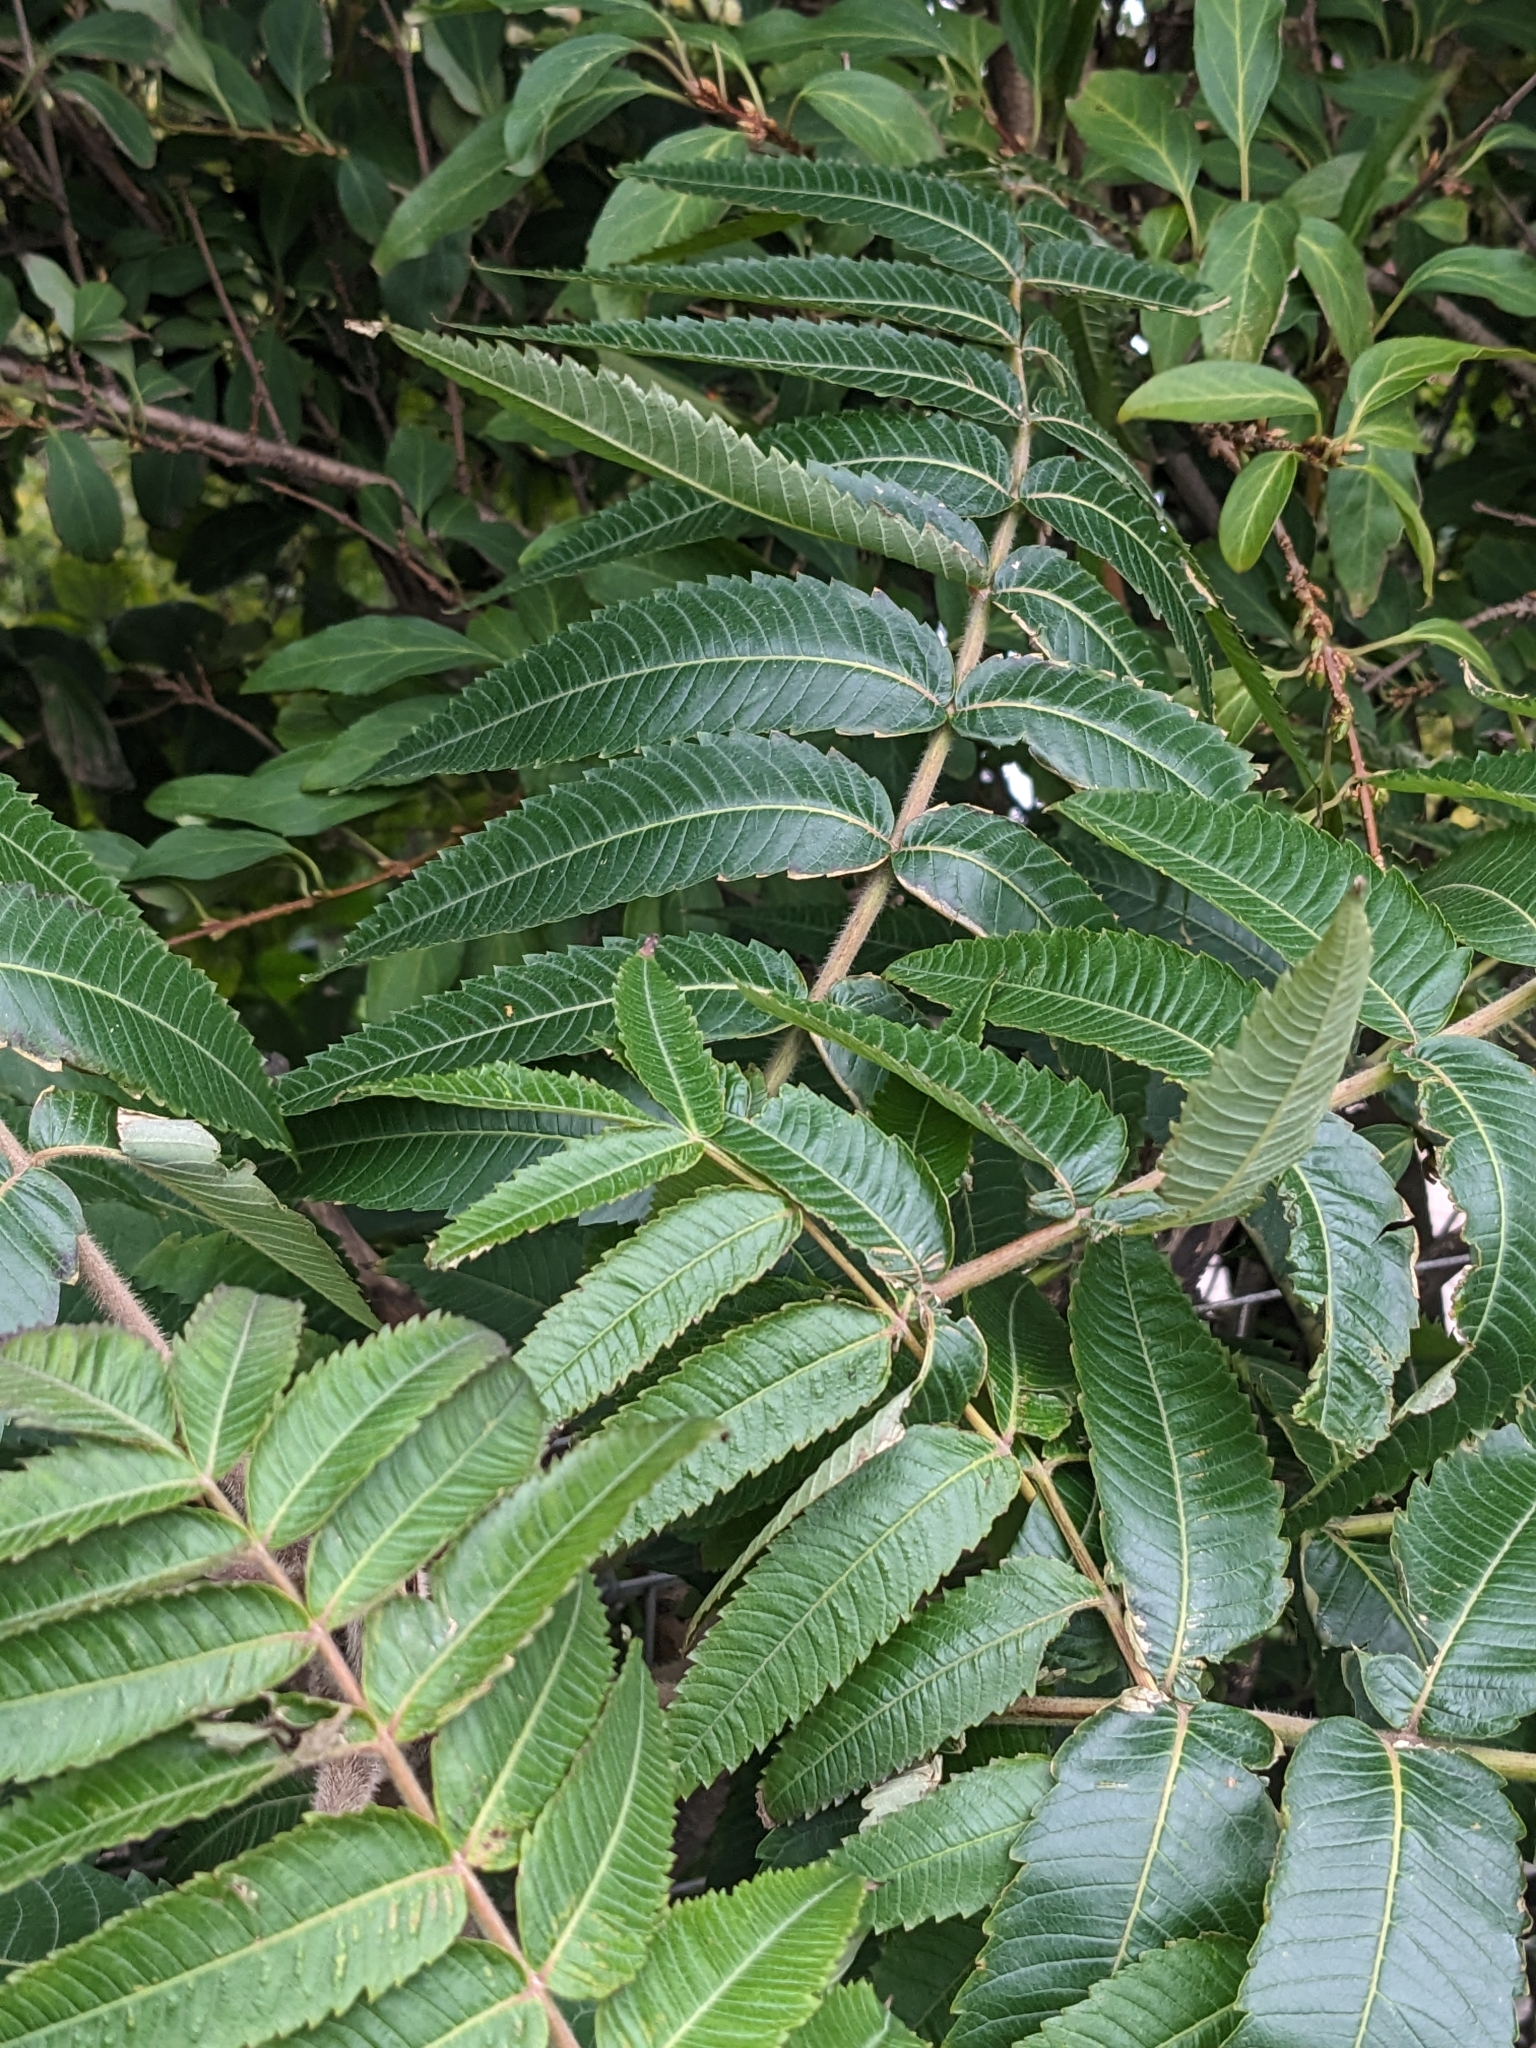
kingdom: Plantae
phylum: Tracheophyta
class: Magnoliopsida
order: Sapindales
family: Anacardiaceae
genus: Rhus
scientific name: Rhus typhina
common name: Staghorn sumac
